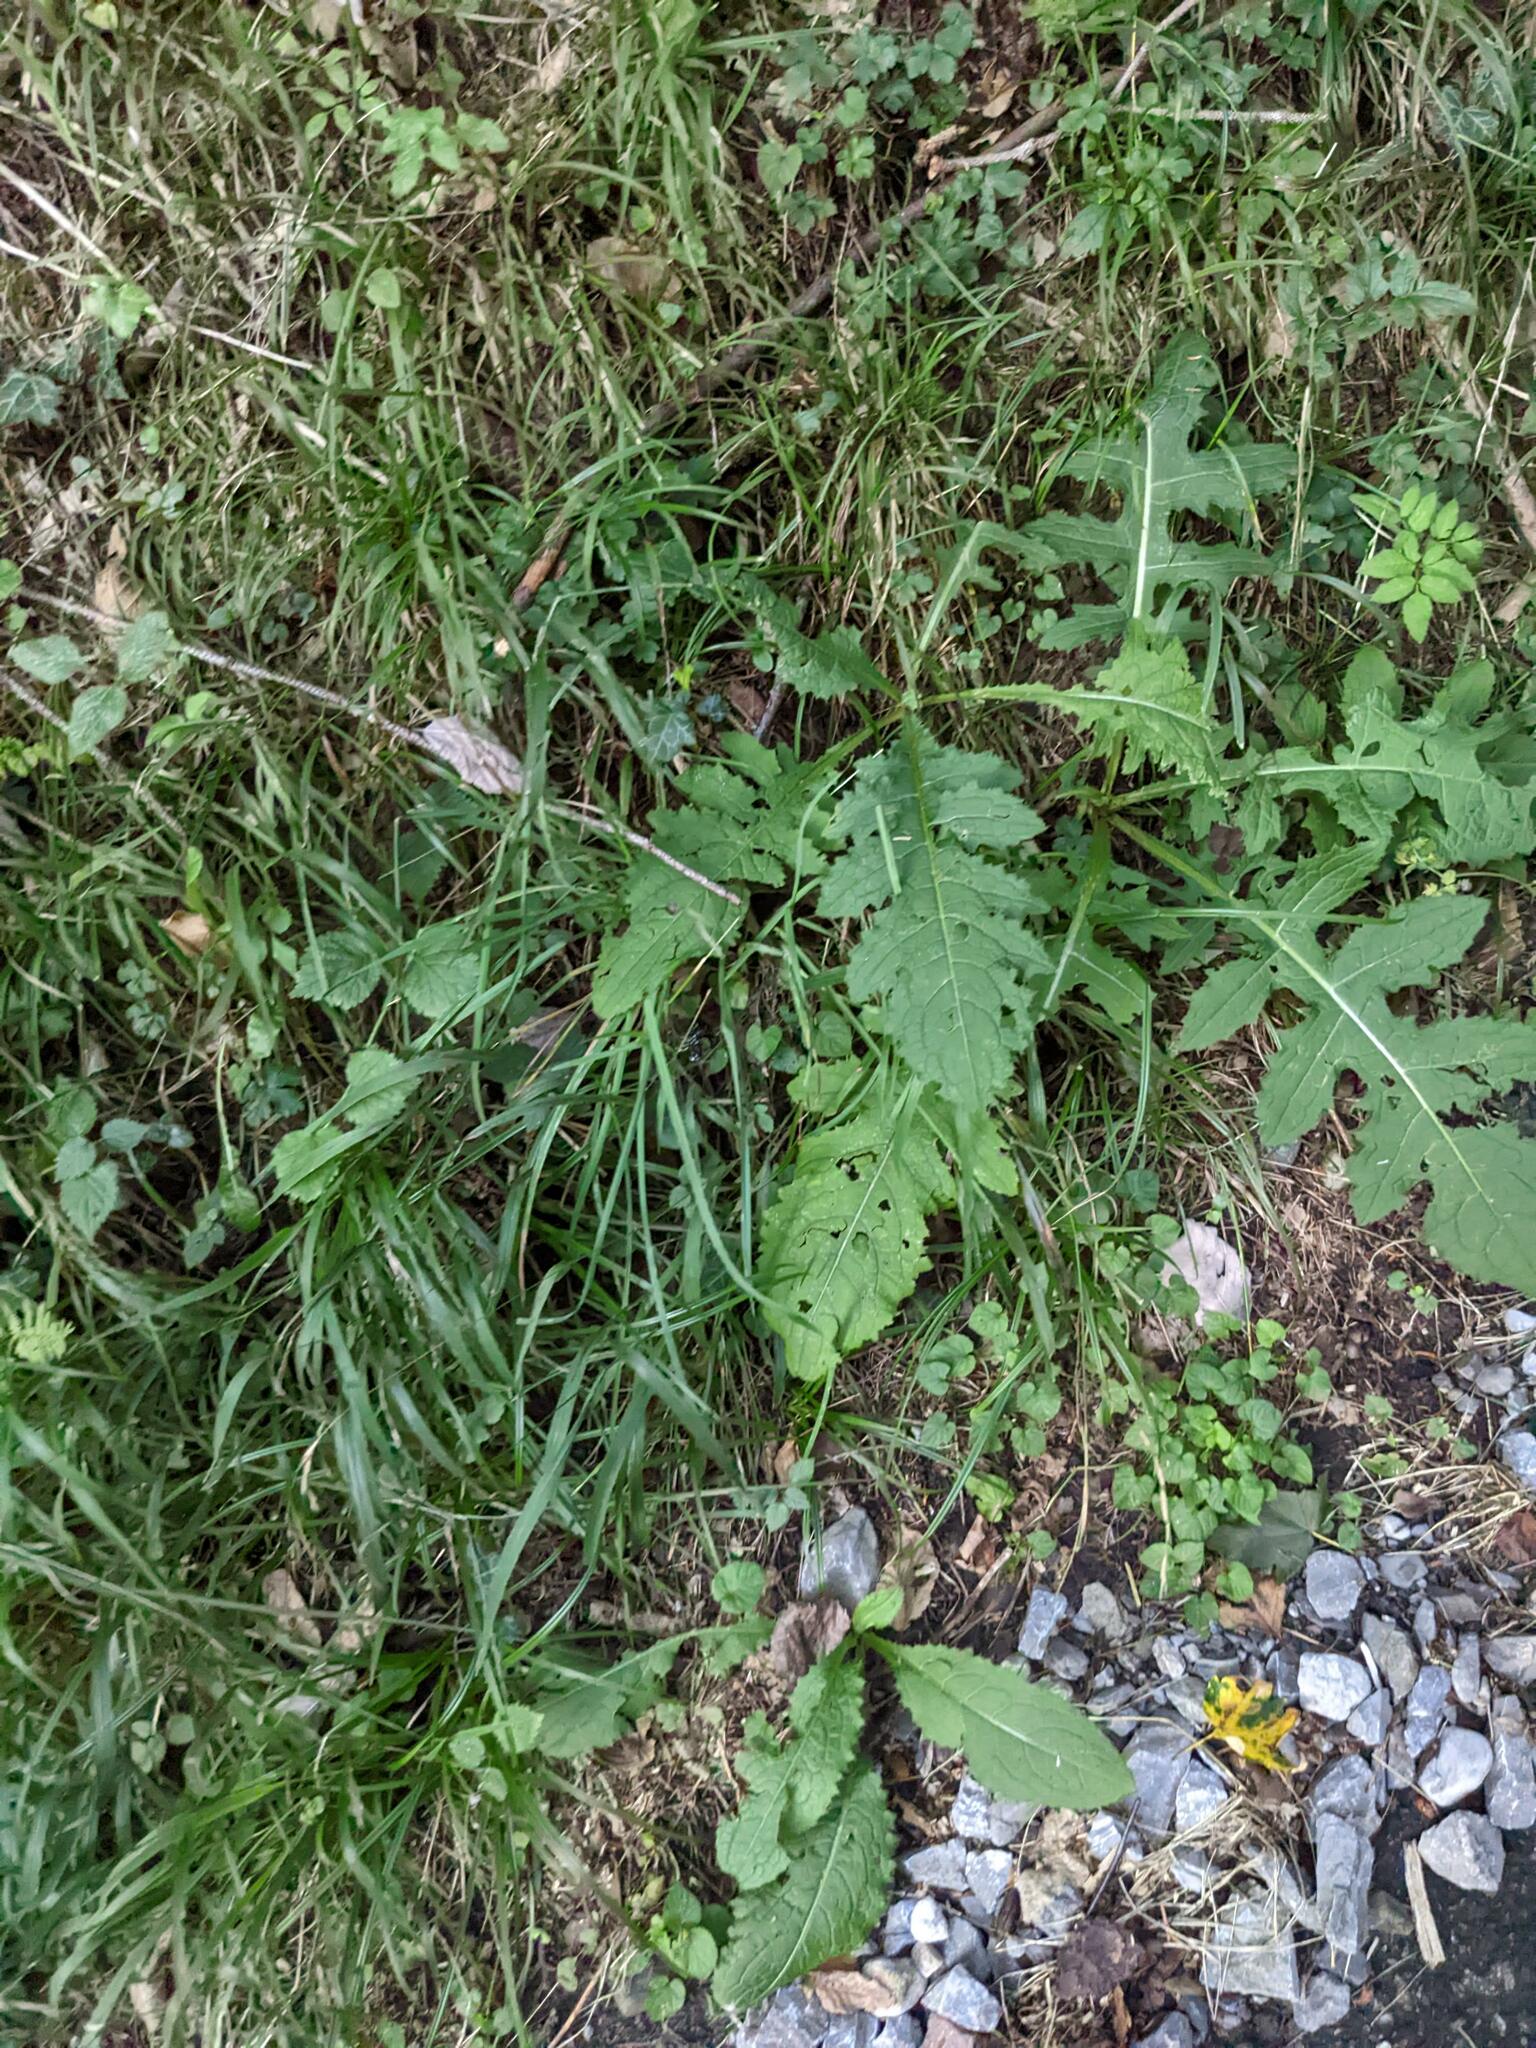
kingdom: Plantae
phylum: Tracheophyta
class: Magnoliopsida
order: Asterales
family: Asteraceae
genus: Cirsium
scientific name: Cirsium oleraceum
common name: Cabbage thistle
